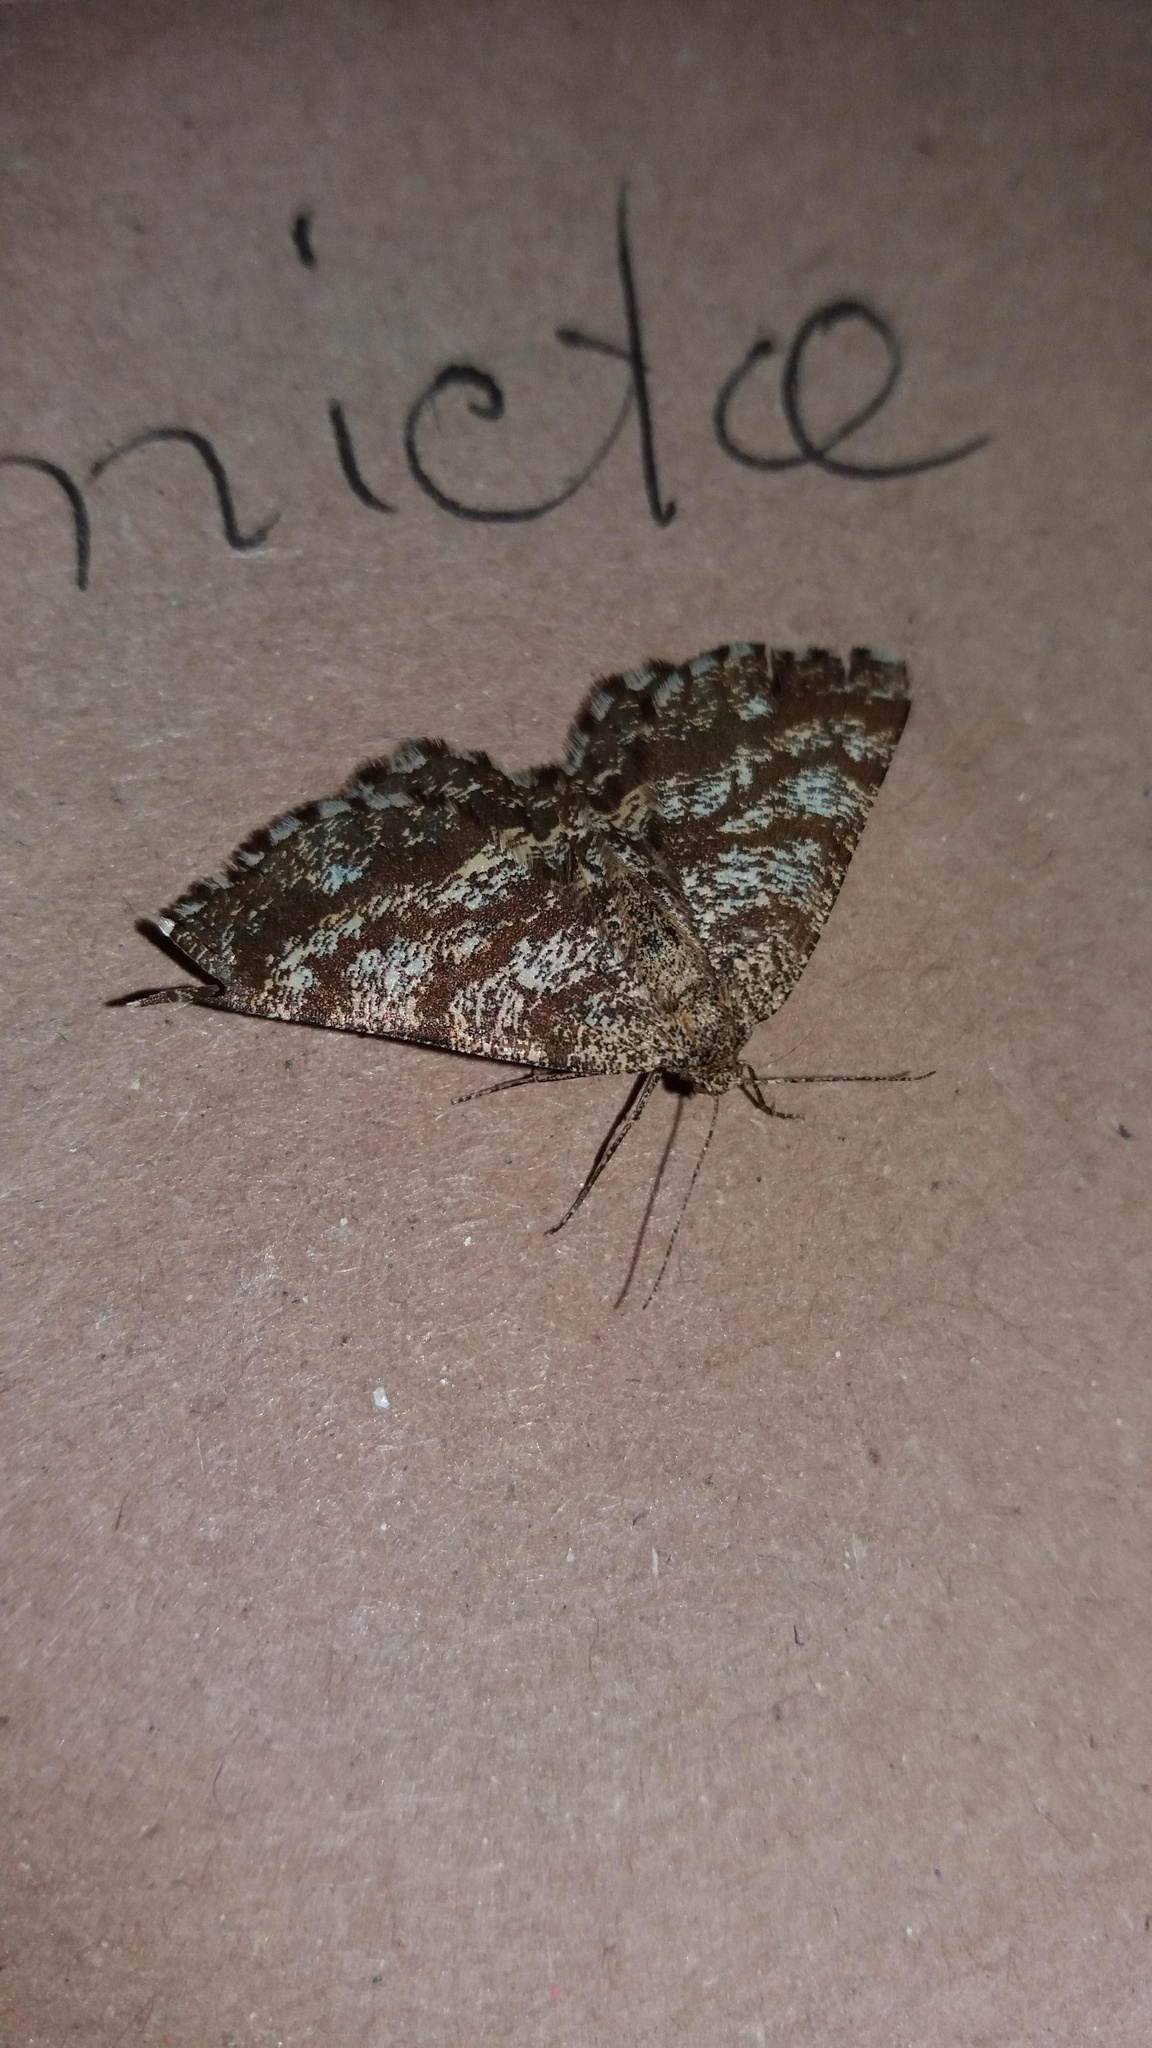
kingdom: Animalia
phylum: Arthropoda
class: Insecta
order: Lepidoptera
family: Geometridae
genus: Ematurga
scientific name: Ematurga atomaria
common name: Common heath
